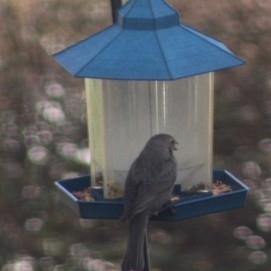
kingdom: Animalia
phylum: Chordata
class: Aves
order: Passeriformes
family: Icteridae
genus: Molothrus
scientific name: Molothrus ater
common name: Brown-headed cowbird
